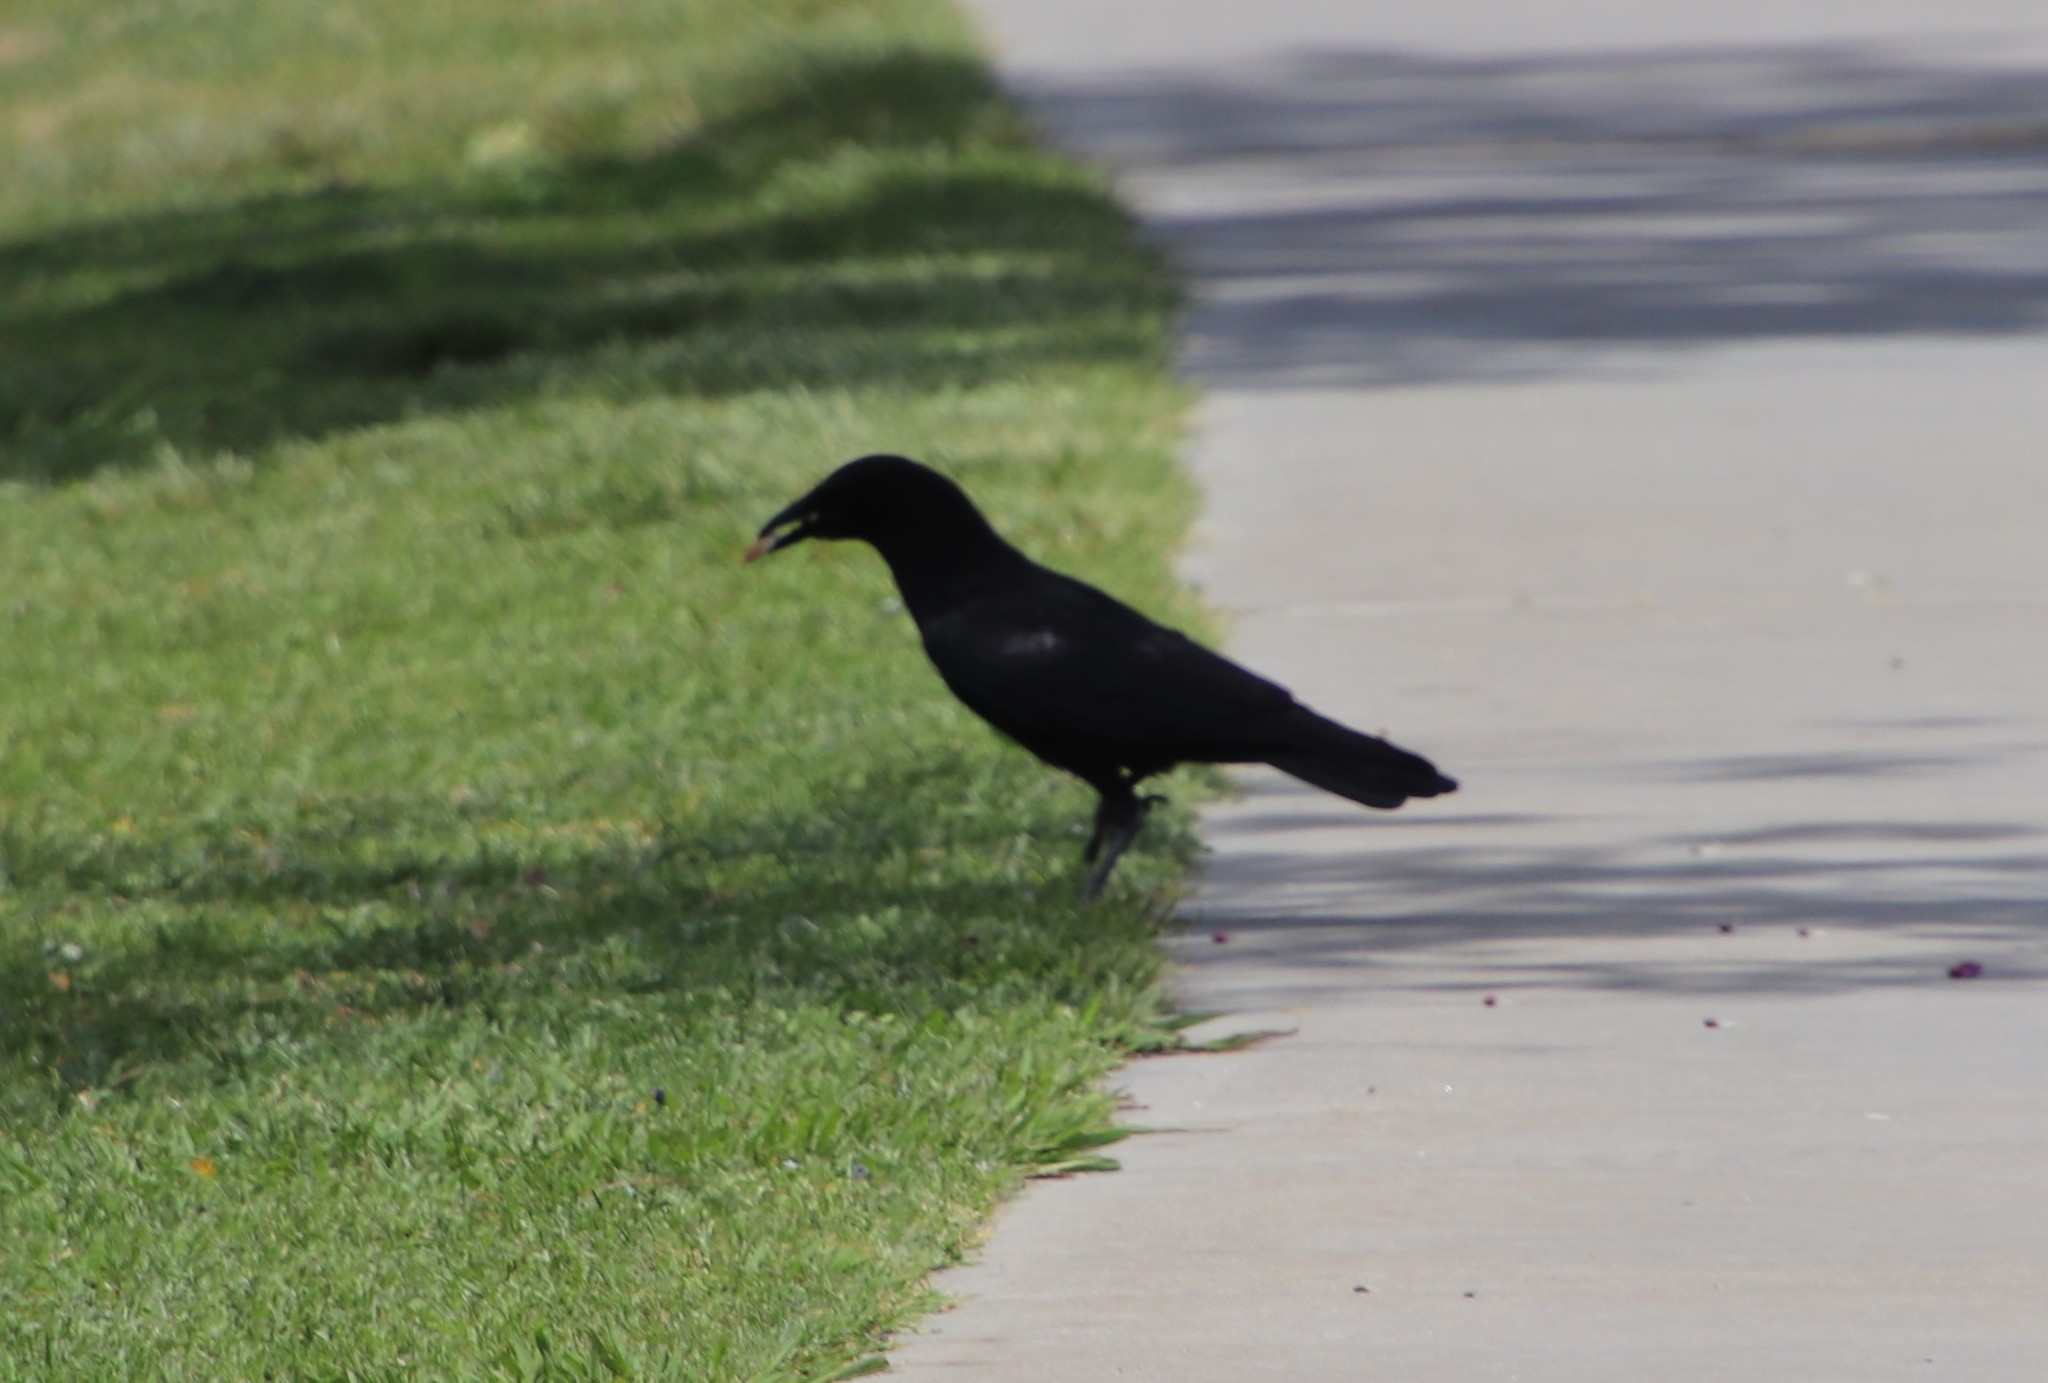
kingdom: Animalia
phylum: Chordata
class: Aves
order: Passeriformes
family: Corvidae
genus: Corvus
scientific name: Corvus brachyrhynchos
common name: American crow
